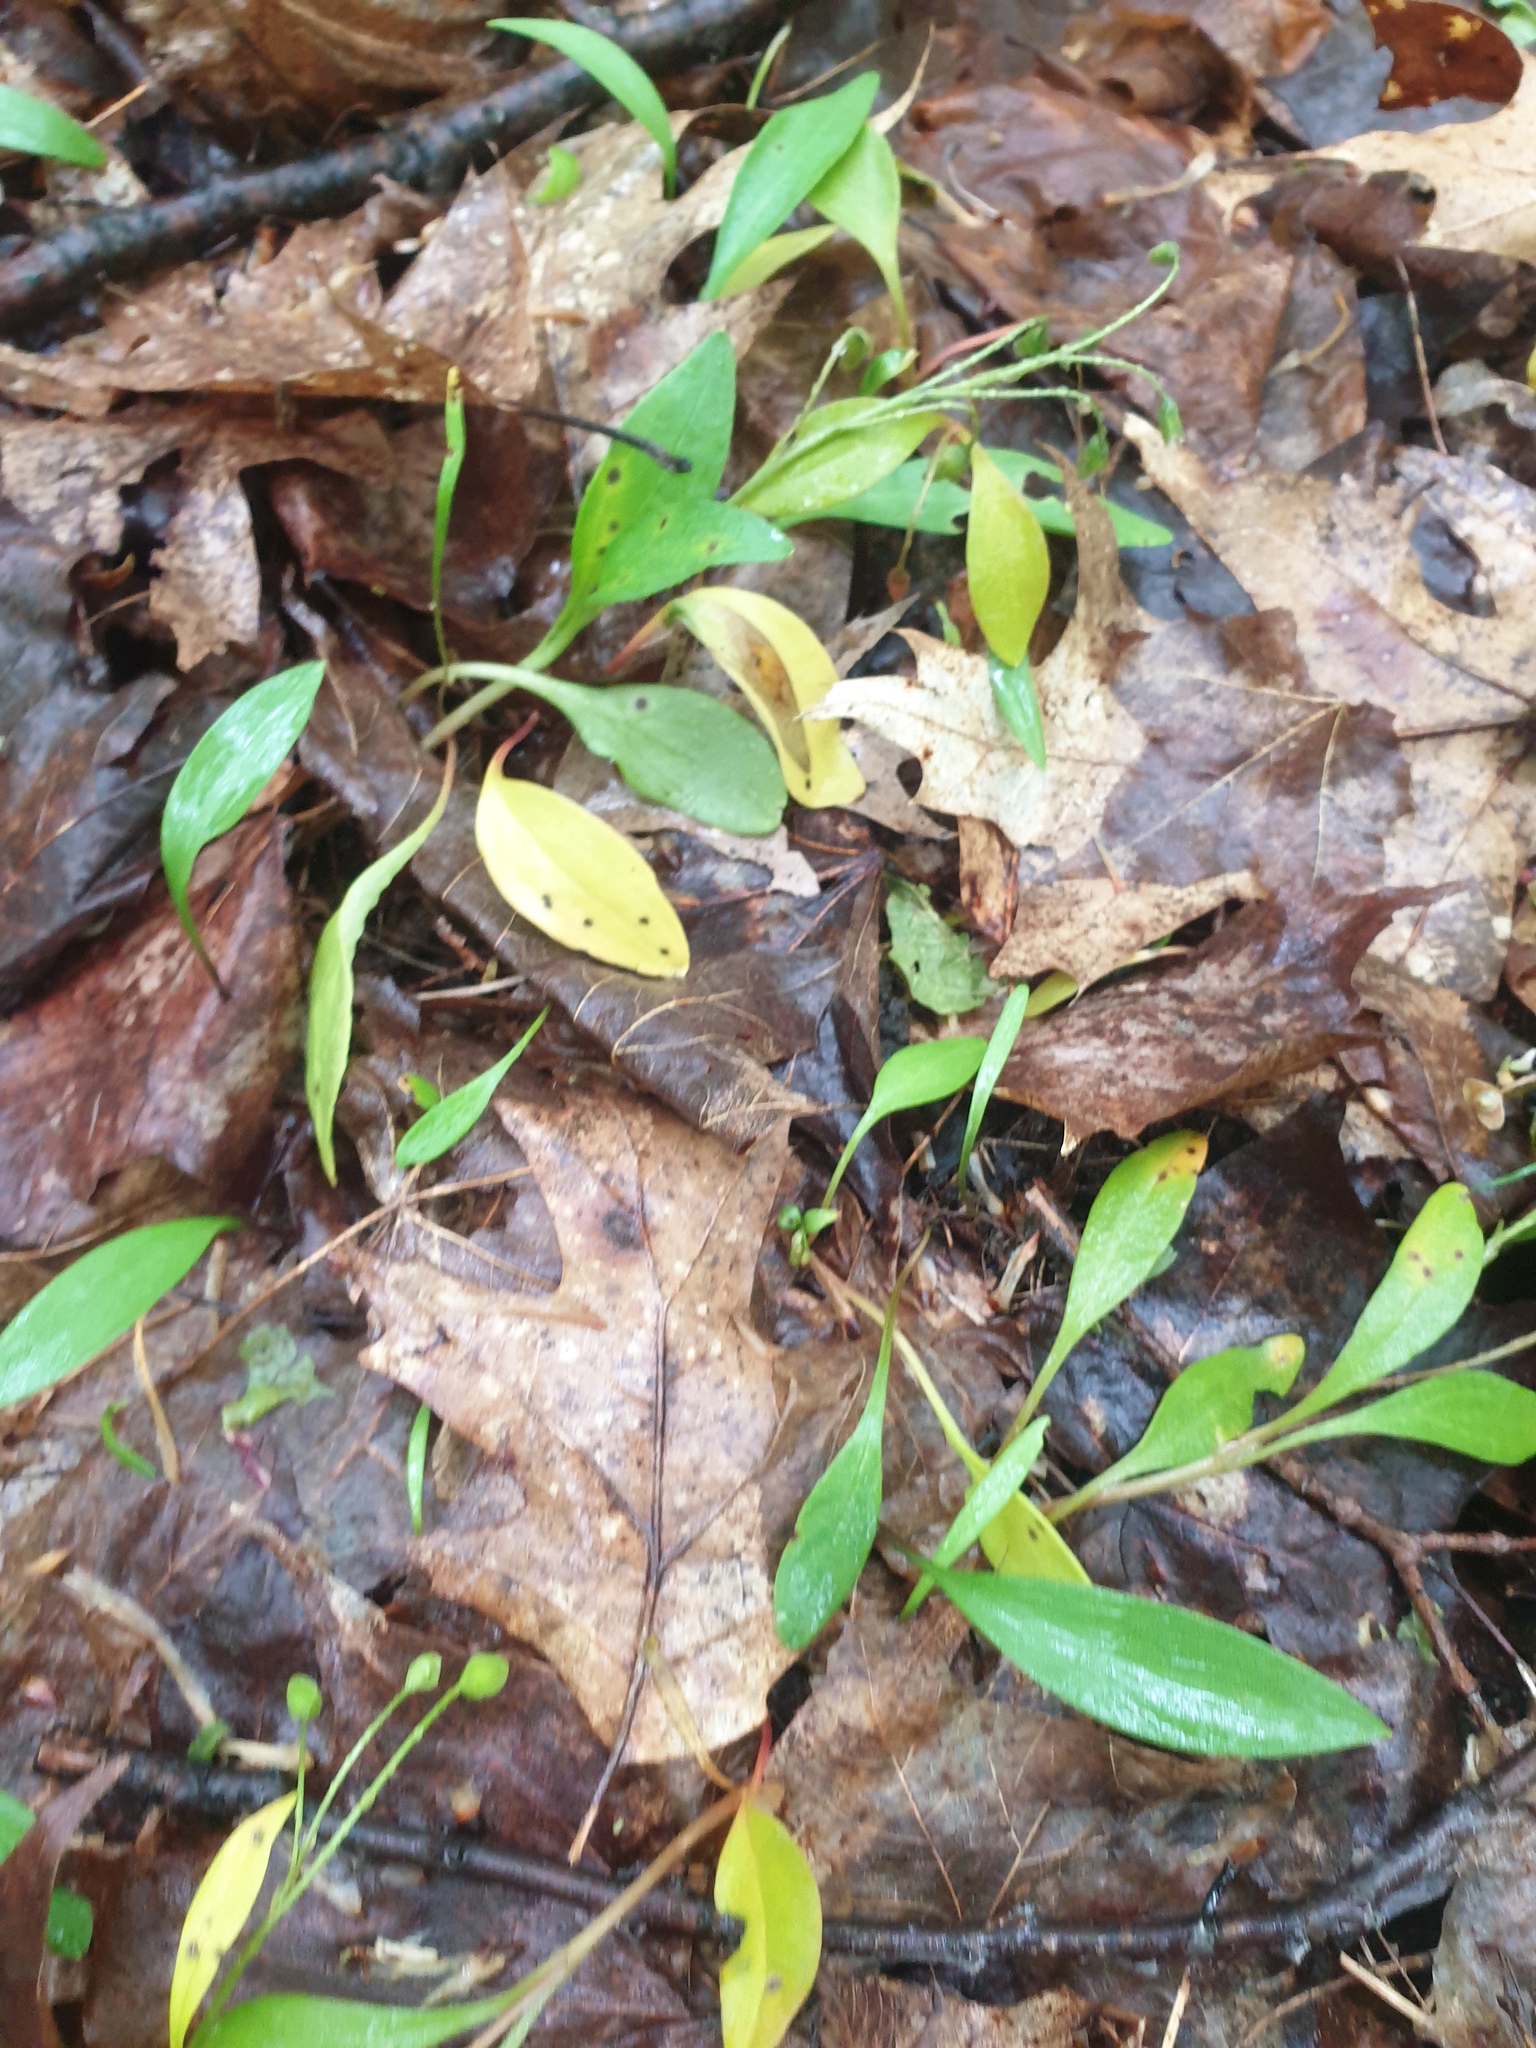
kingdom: Plantae
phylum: Tracheophyta
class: Magnoliopsida
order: Caryophyllales
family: Montiaceae
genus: Claytonia
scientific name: Claytonia caroliniana
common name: Carolina spring beauty
